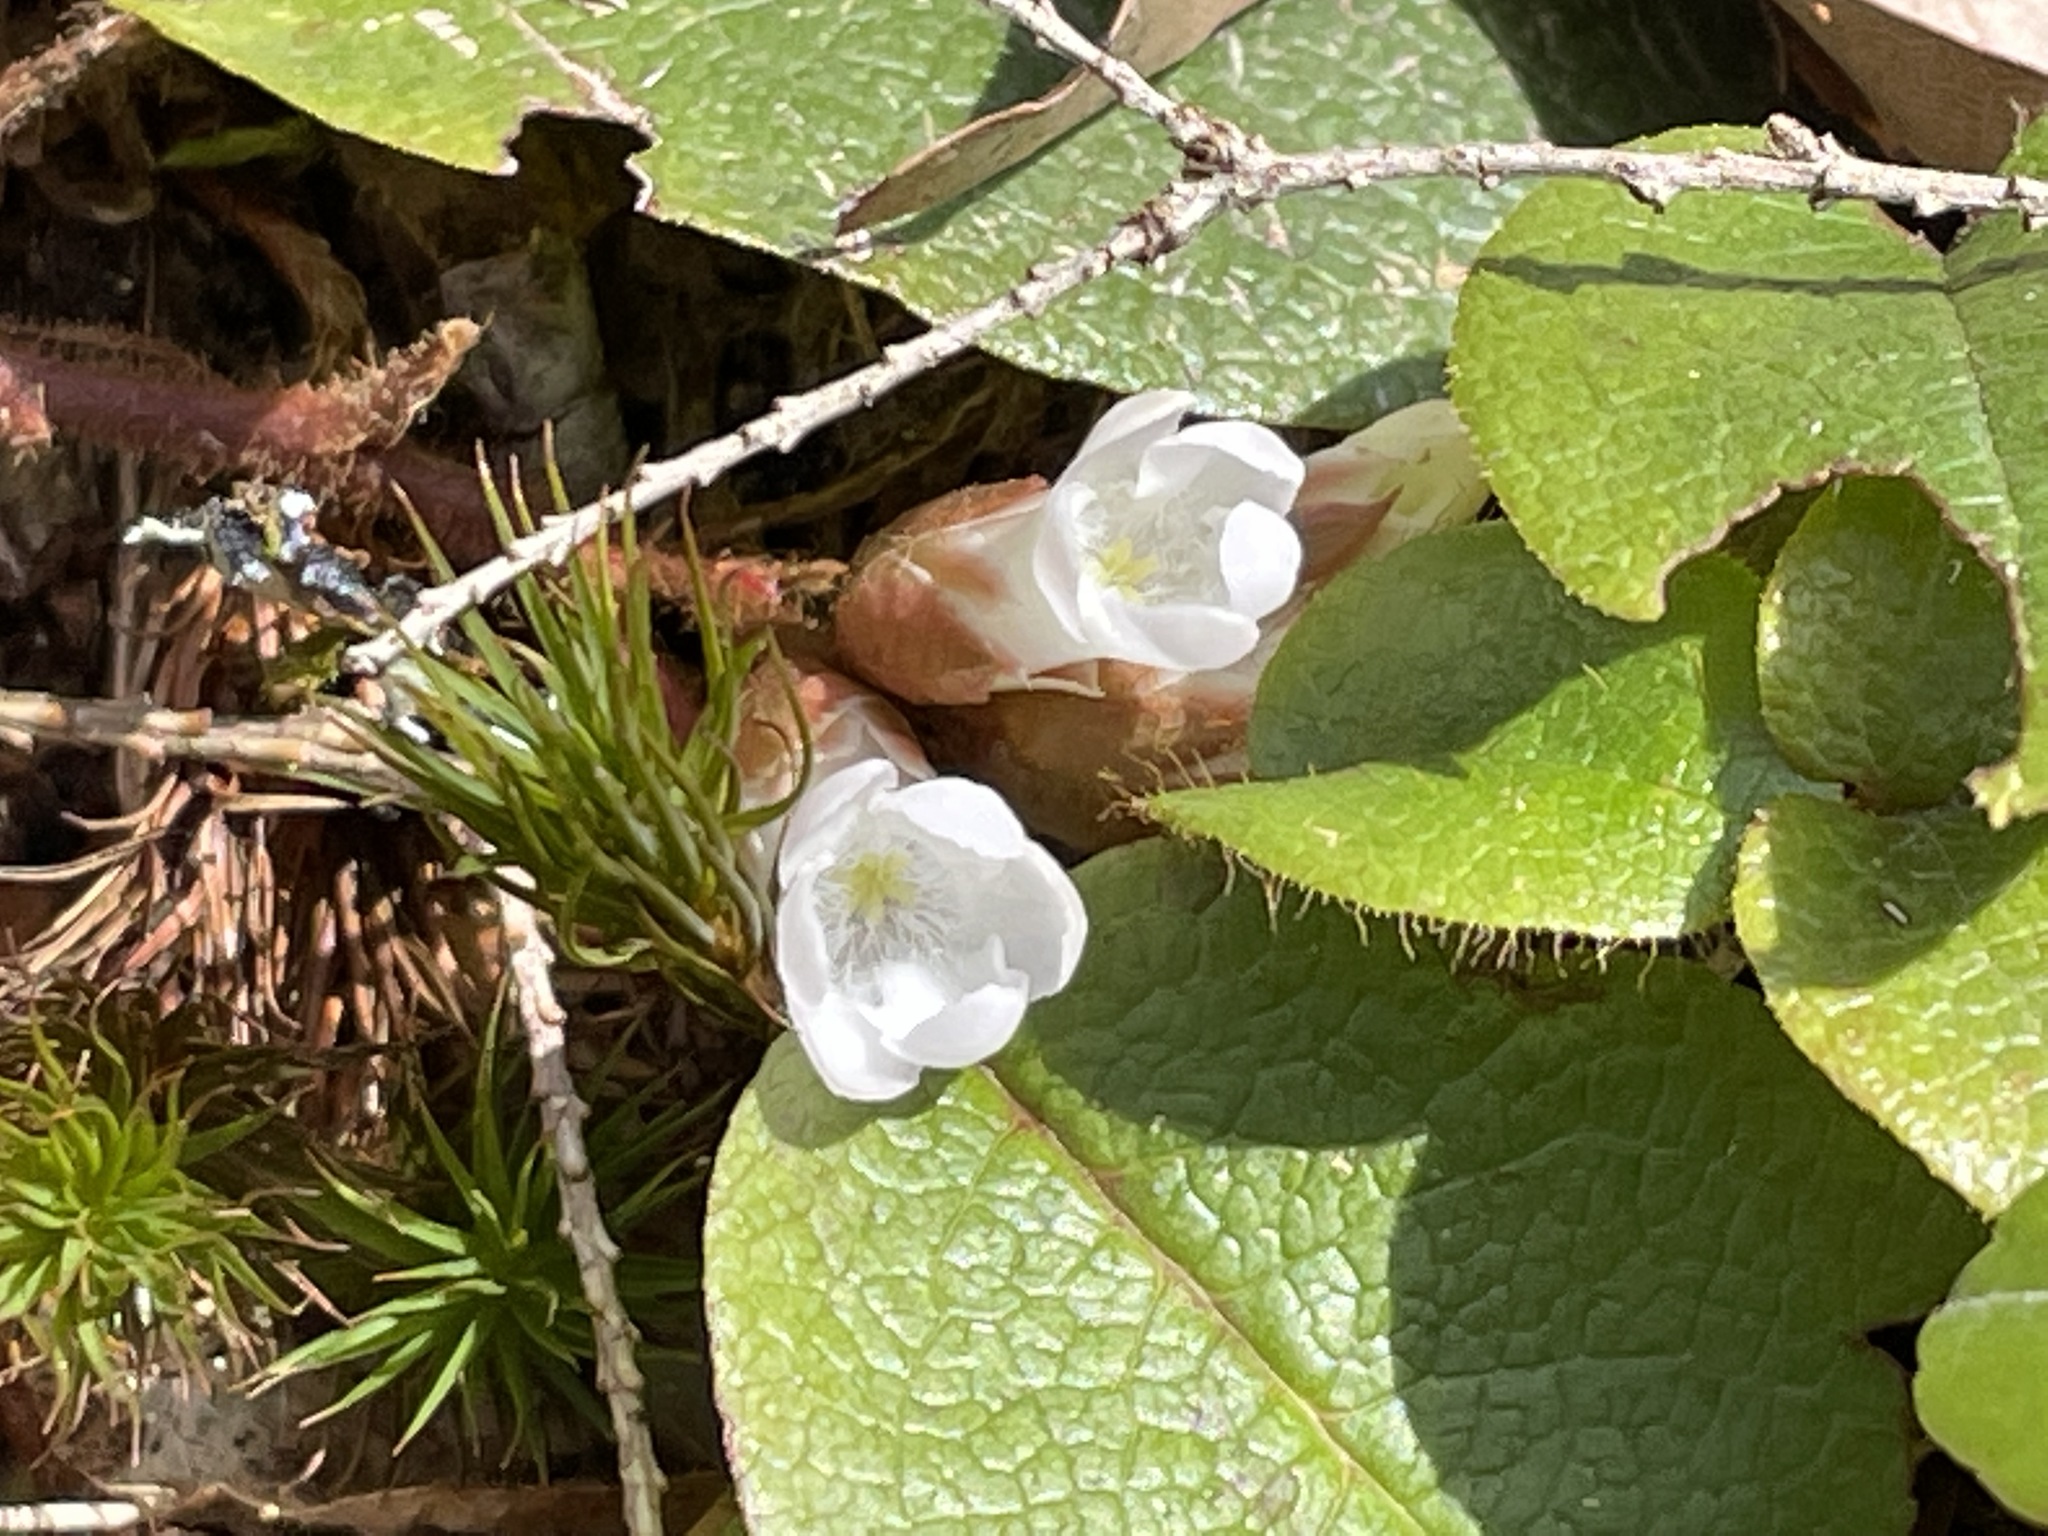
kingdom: Plantae
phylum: Tracheophyta
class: Magnoliopsida
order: Ericales
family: Ericaceae
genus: Epigaea
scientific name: Epigaea repens
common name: Gravelroot
